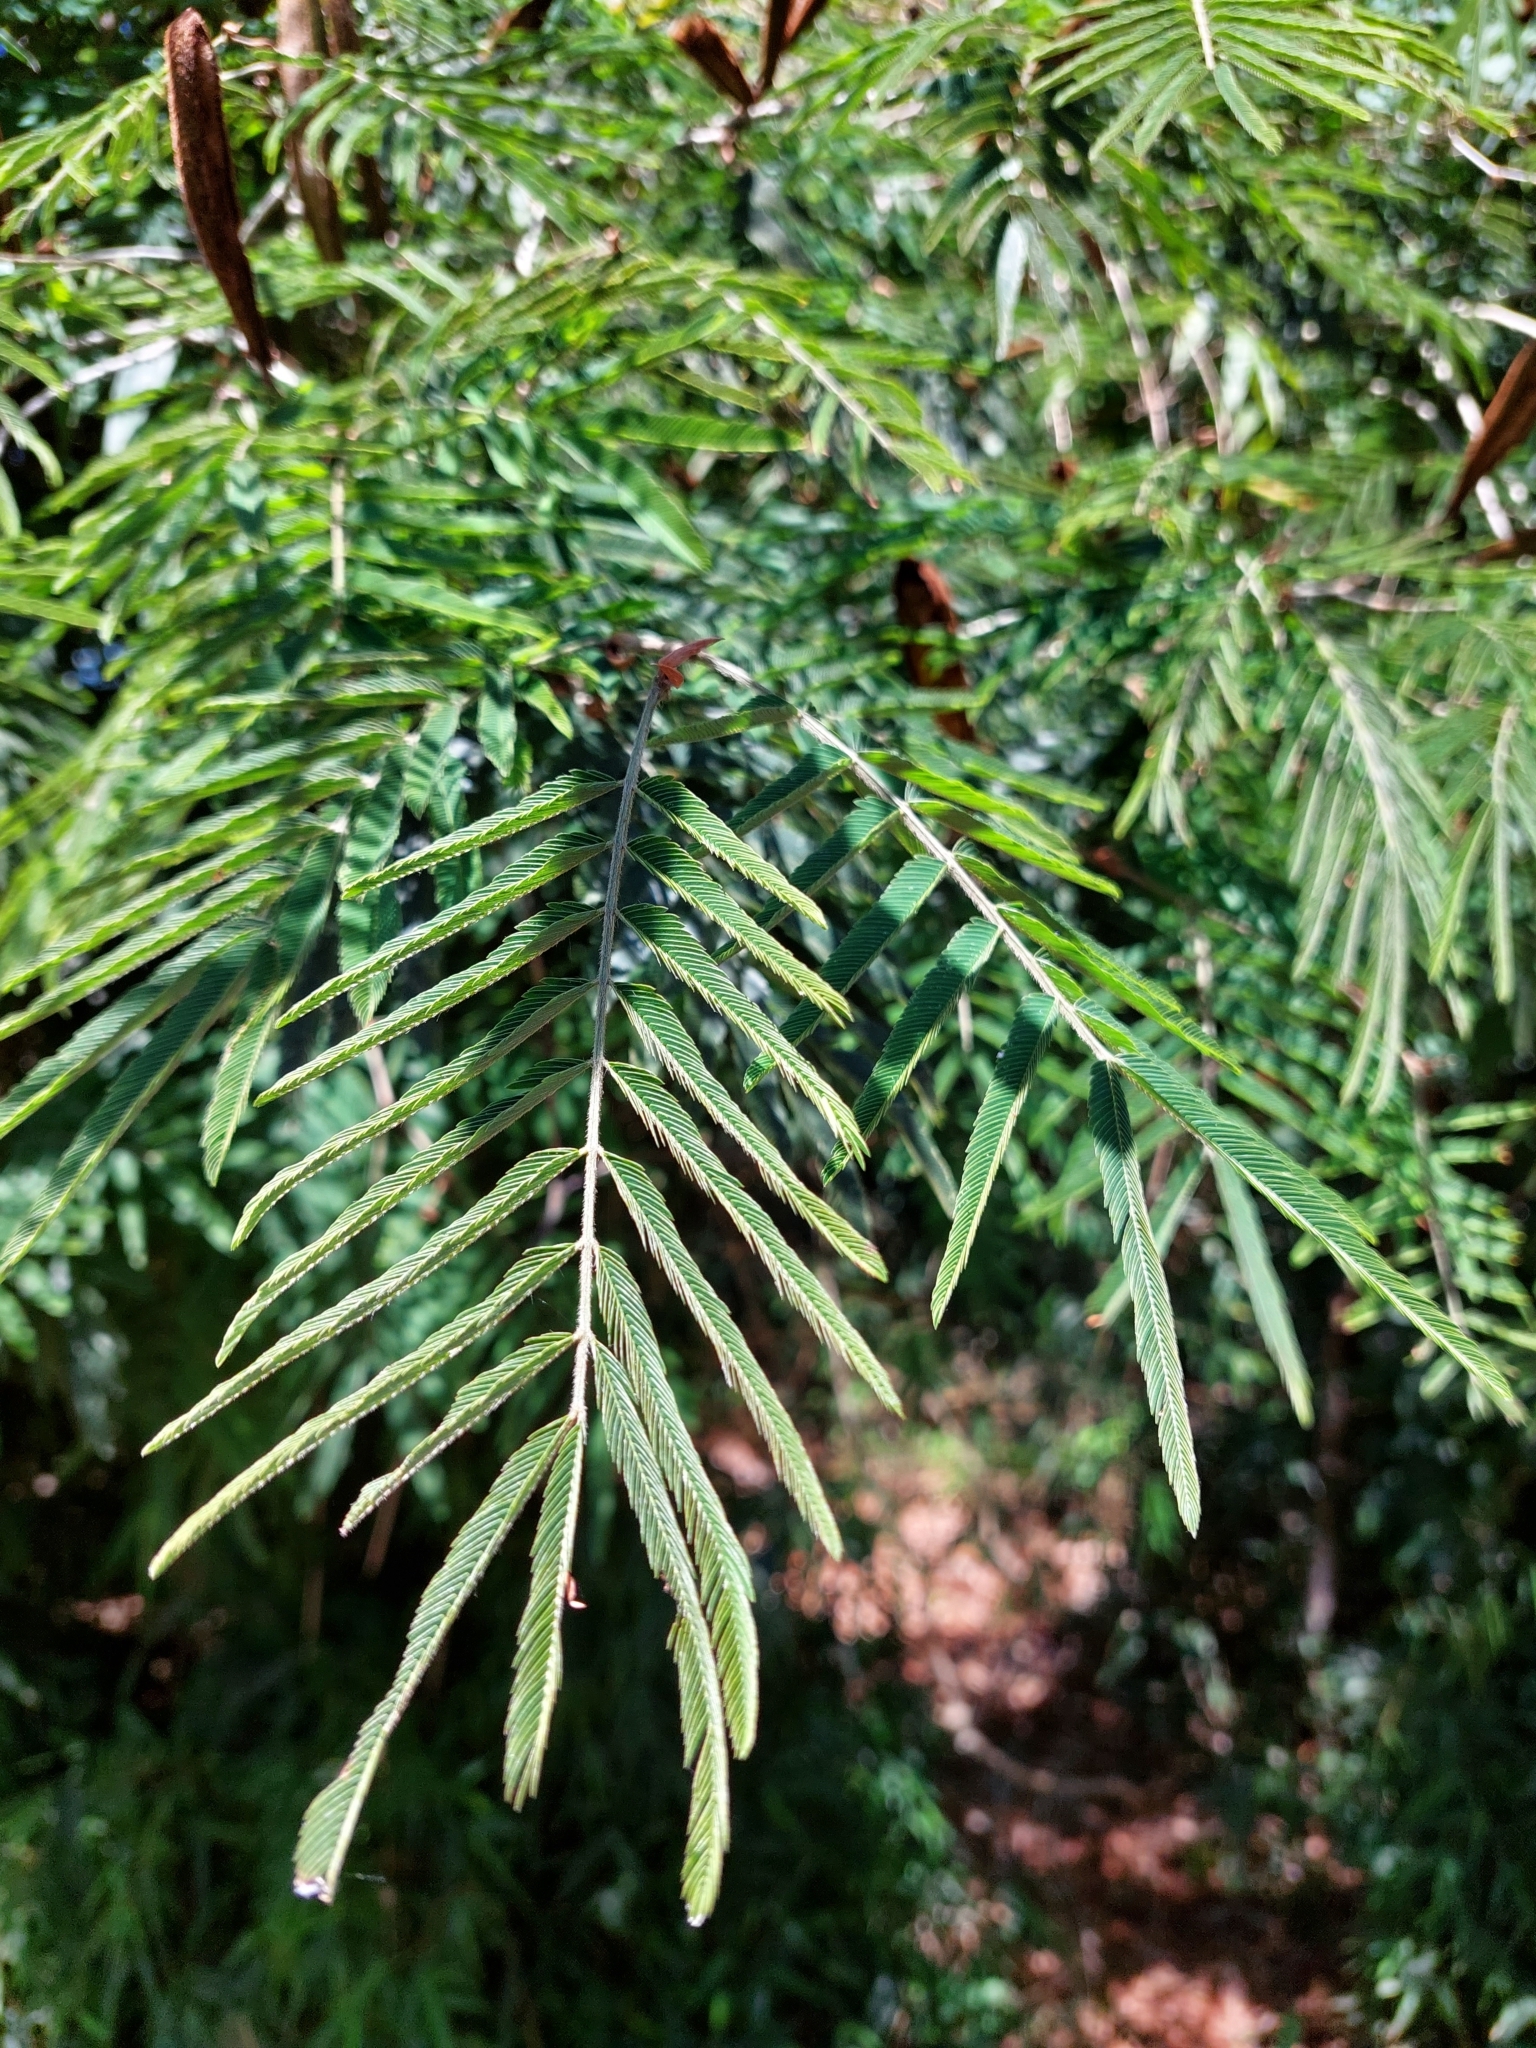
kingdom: Plantae
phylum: Tracheophyta
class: Magnoliopsida
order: Fabales
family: Fabaceae
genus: Mimosa
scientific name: Mimosa pigra
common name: Black mimosa
